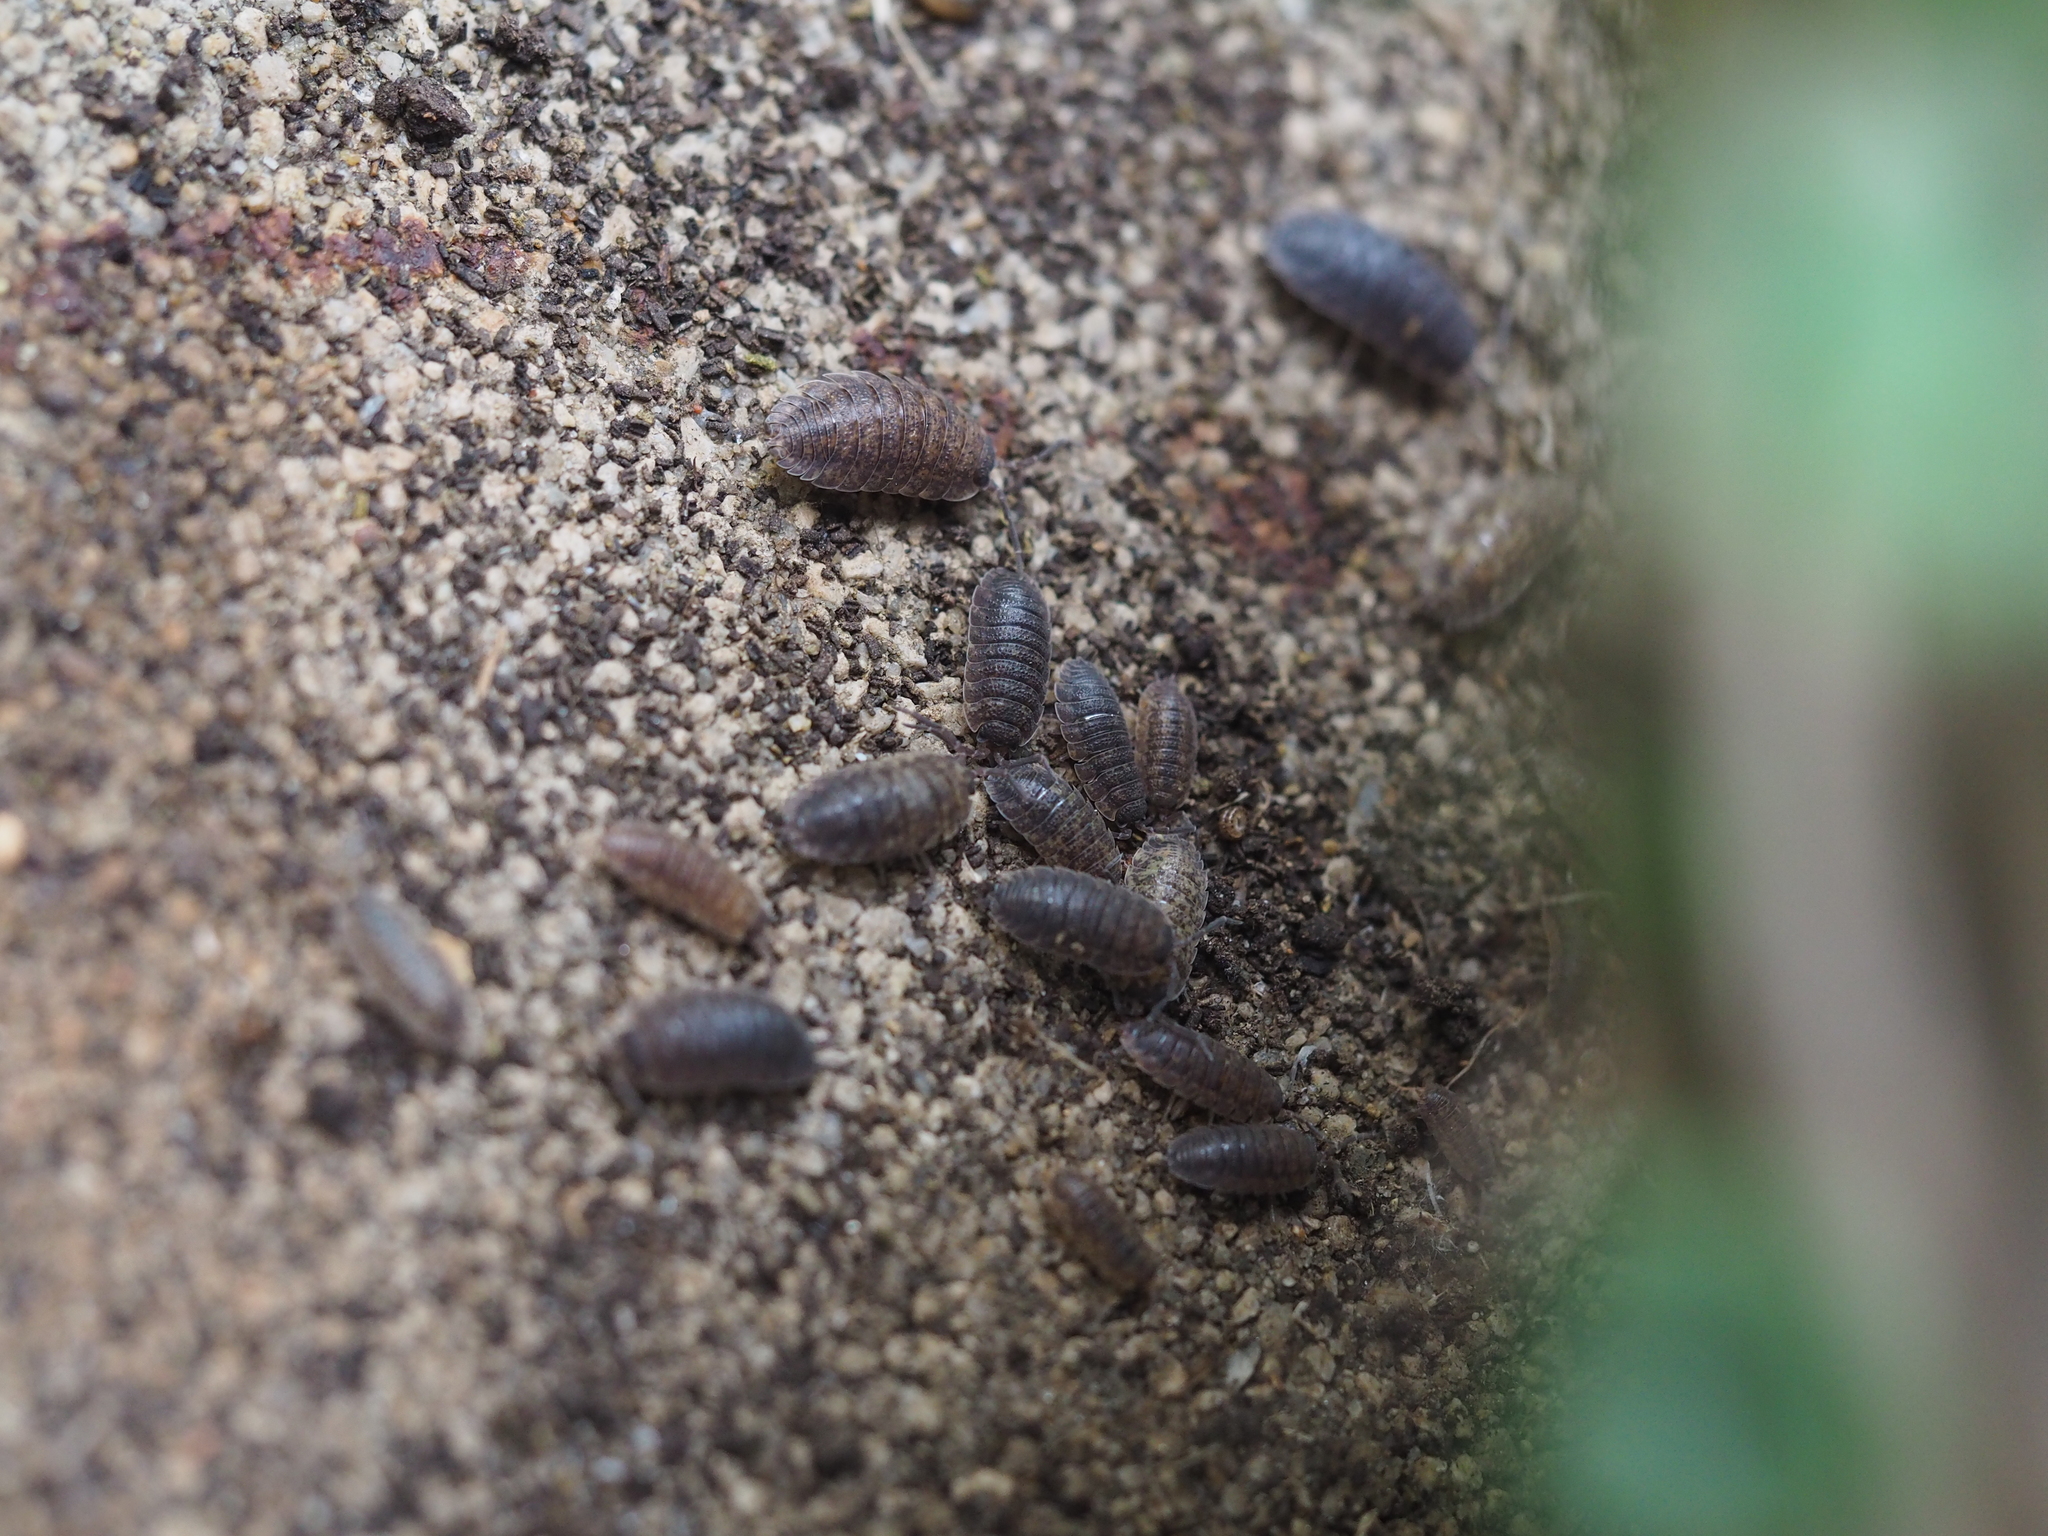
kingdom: Animalia
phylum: Arthropoda
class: Malacostraca
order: Isopoda
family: Porcellionidae
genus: Porcellio
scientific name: Porcellio scaber
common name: Common rough woodlouse
